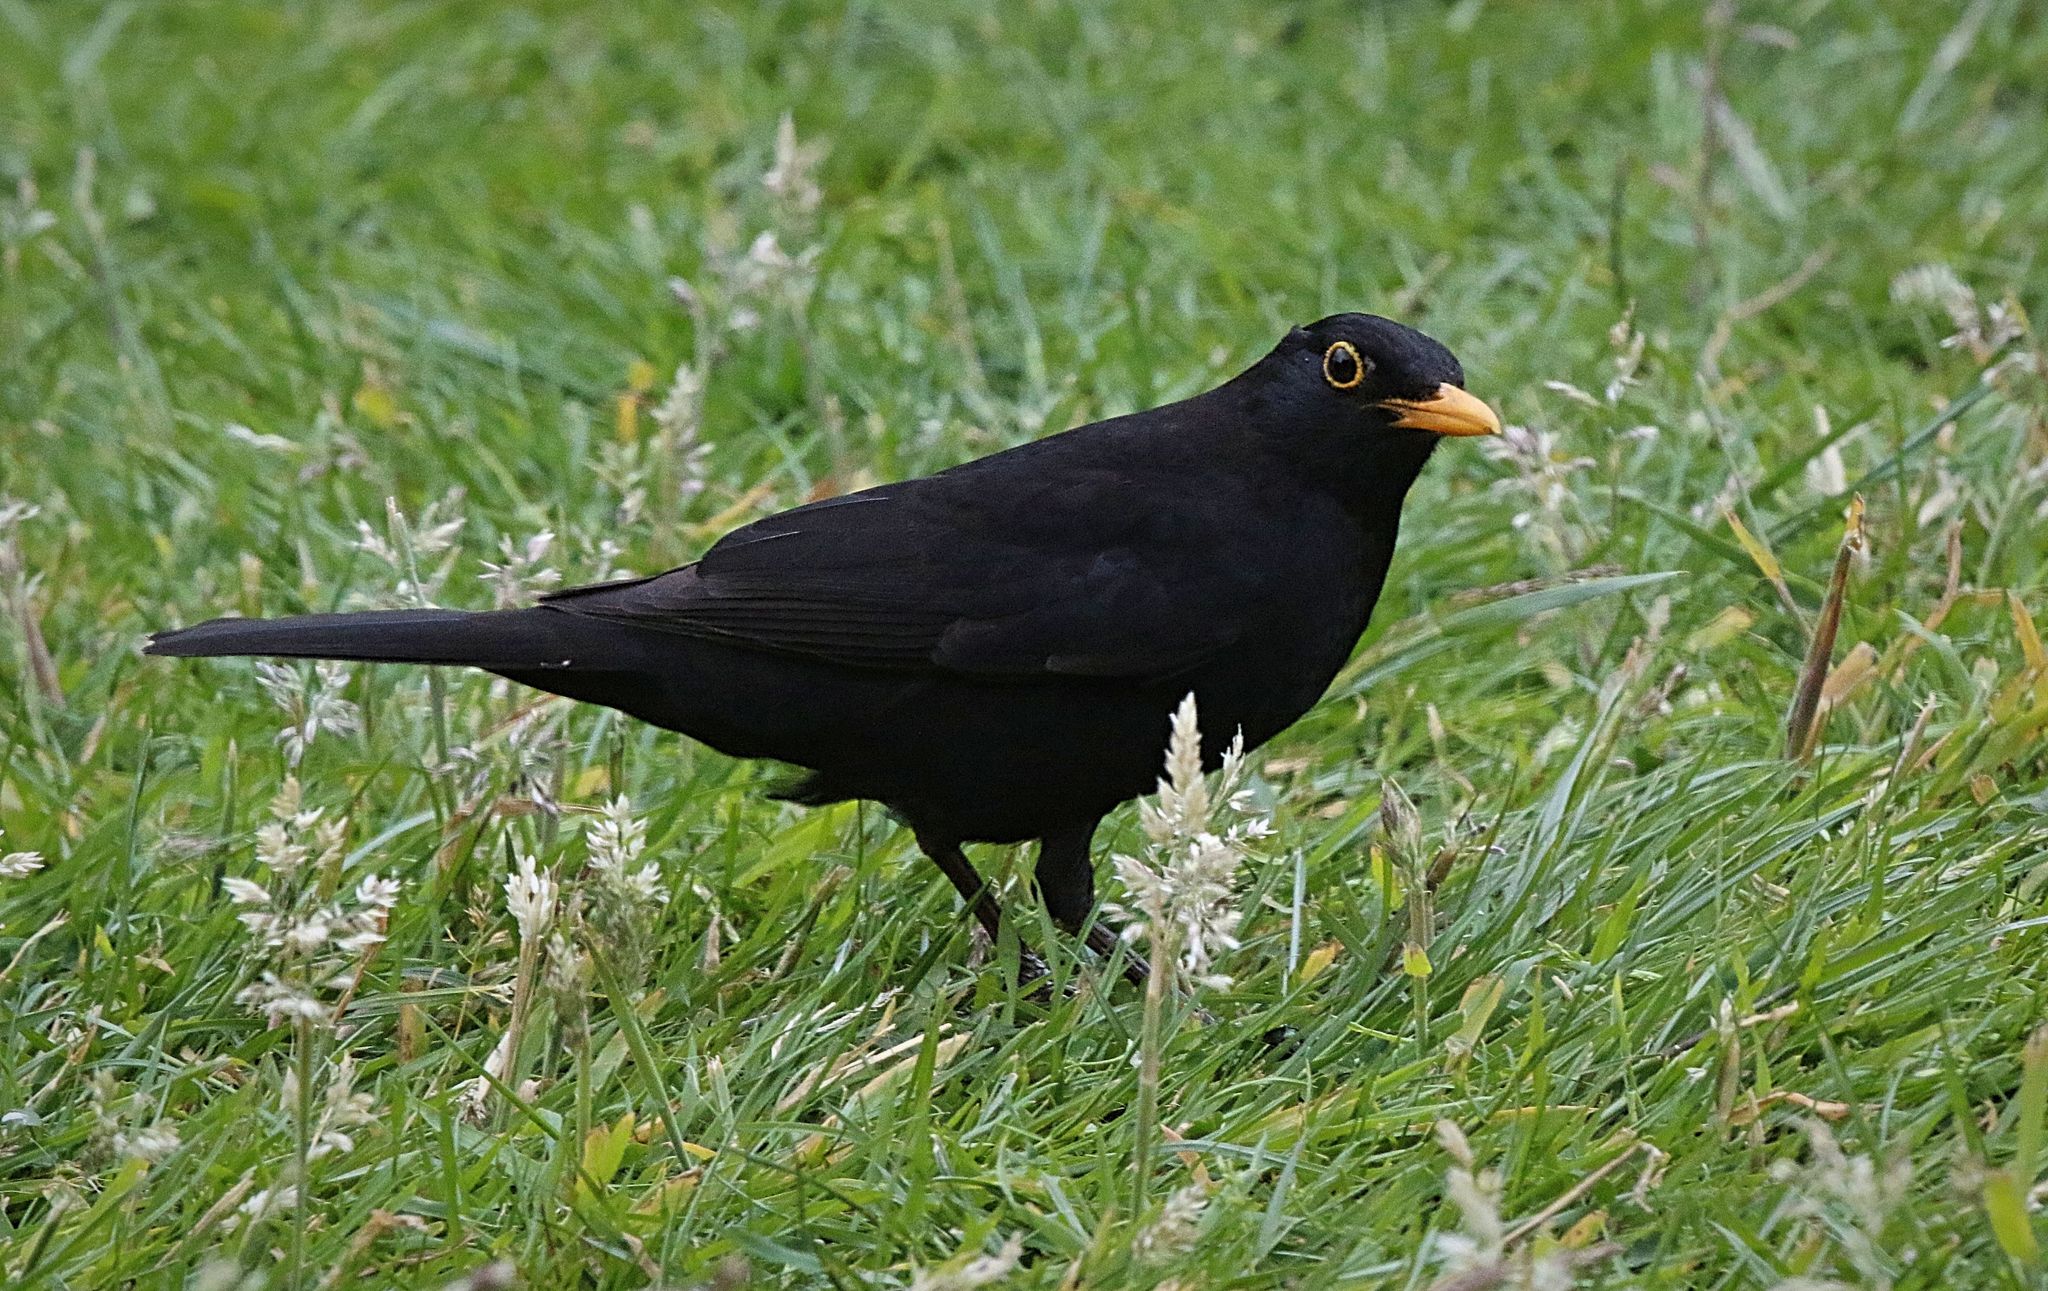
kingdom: Animalia
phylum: Chordata
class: Aves
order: Passeriformes
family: Turdidae
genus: Turdus
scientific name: Turdus merula
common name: Common blackbird
